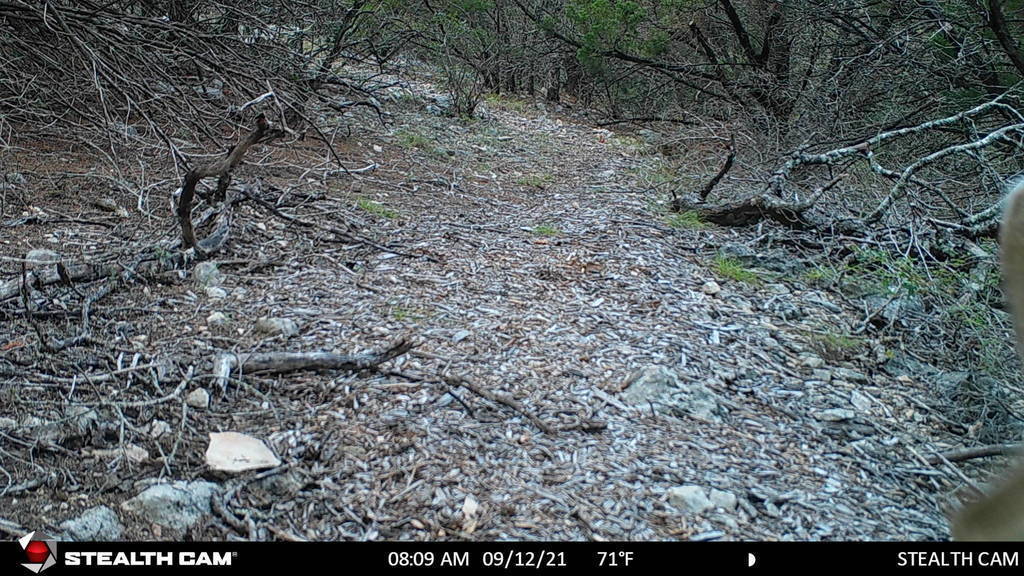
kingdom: Animalia
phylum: Chordata
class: Mammalia
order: Artiodactyla
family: Cervidae
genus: Odocoileus
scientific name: Odocoileus virginianus
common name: White-tailed deer
